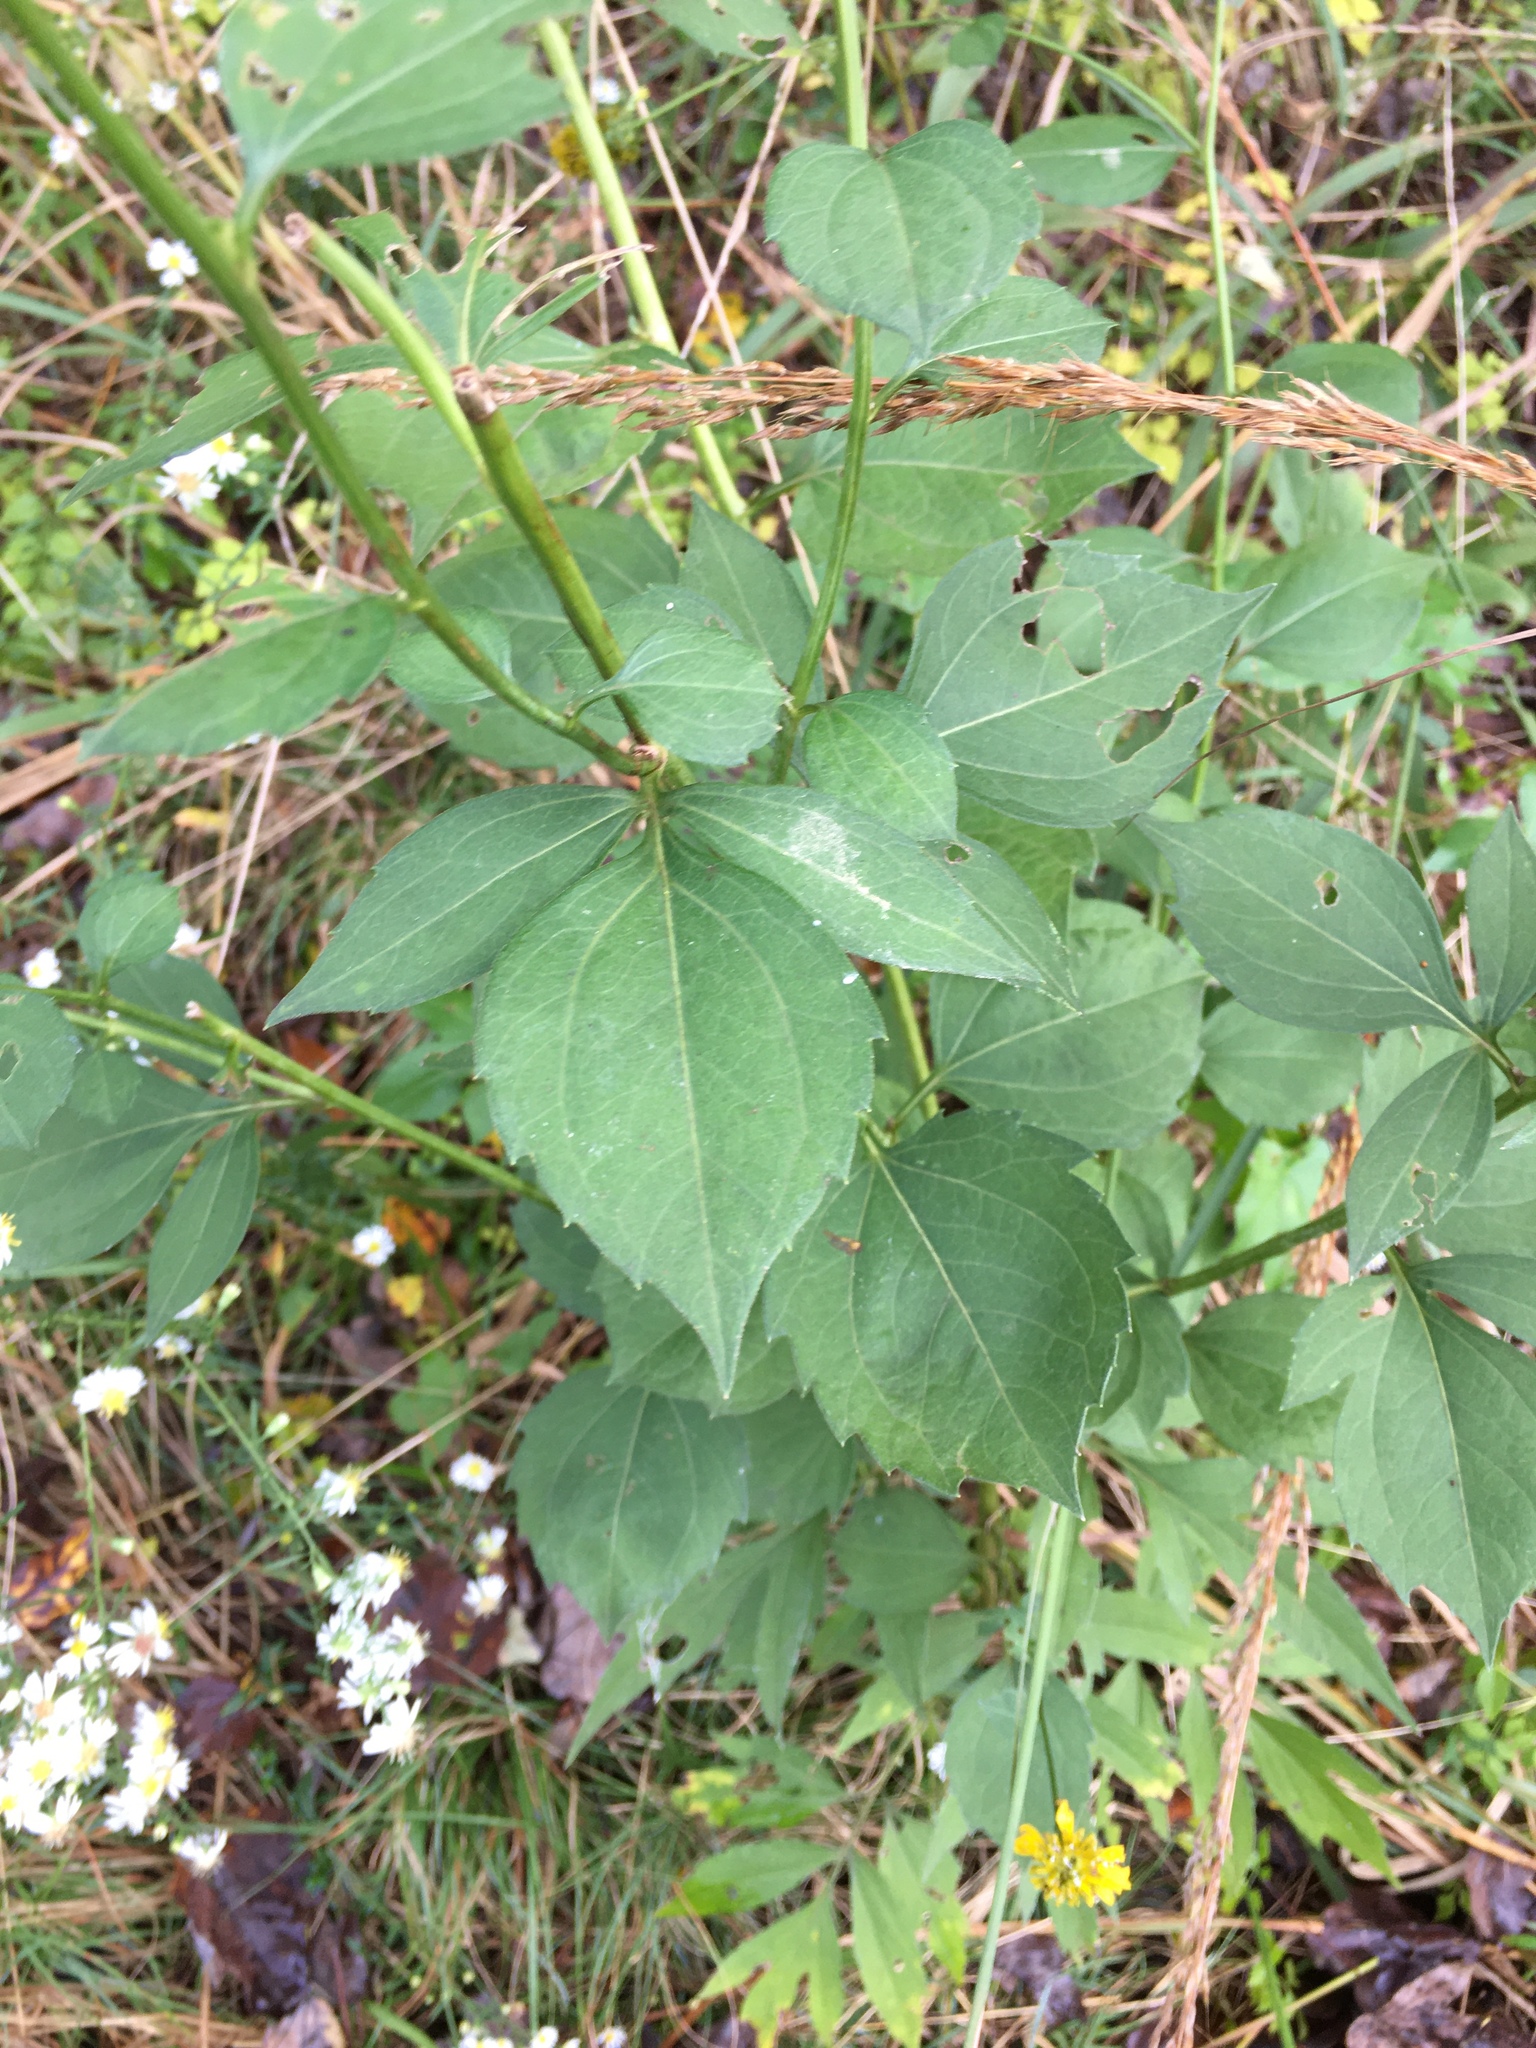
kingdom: Plantae
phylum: Tracheophyta
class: Magnoliopsida
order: Asterales
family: Asteraceae
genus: Rudbeckia
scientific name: Rudbeckia laciniata
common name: Coneflower
